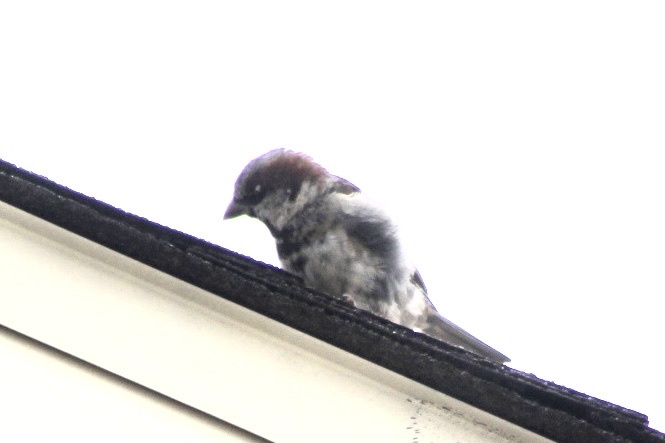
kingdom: Animalia
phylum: Chordata
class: Aves
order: Passeriformes
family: Passeridae
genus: Passer
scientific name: Passer domesticus
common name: House sparrow
